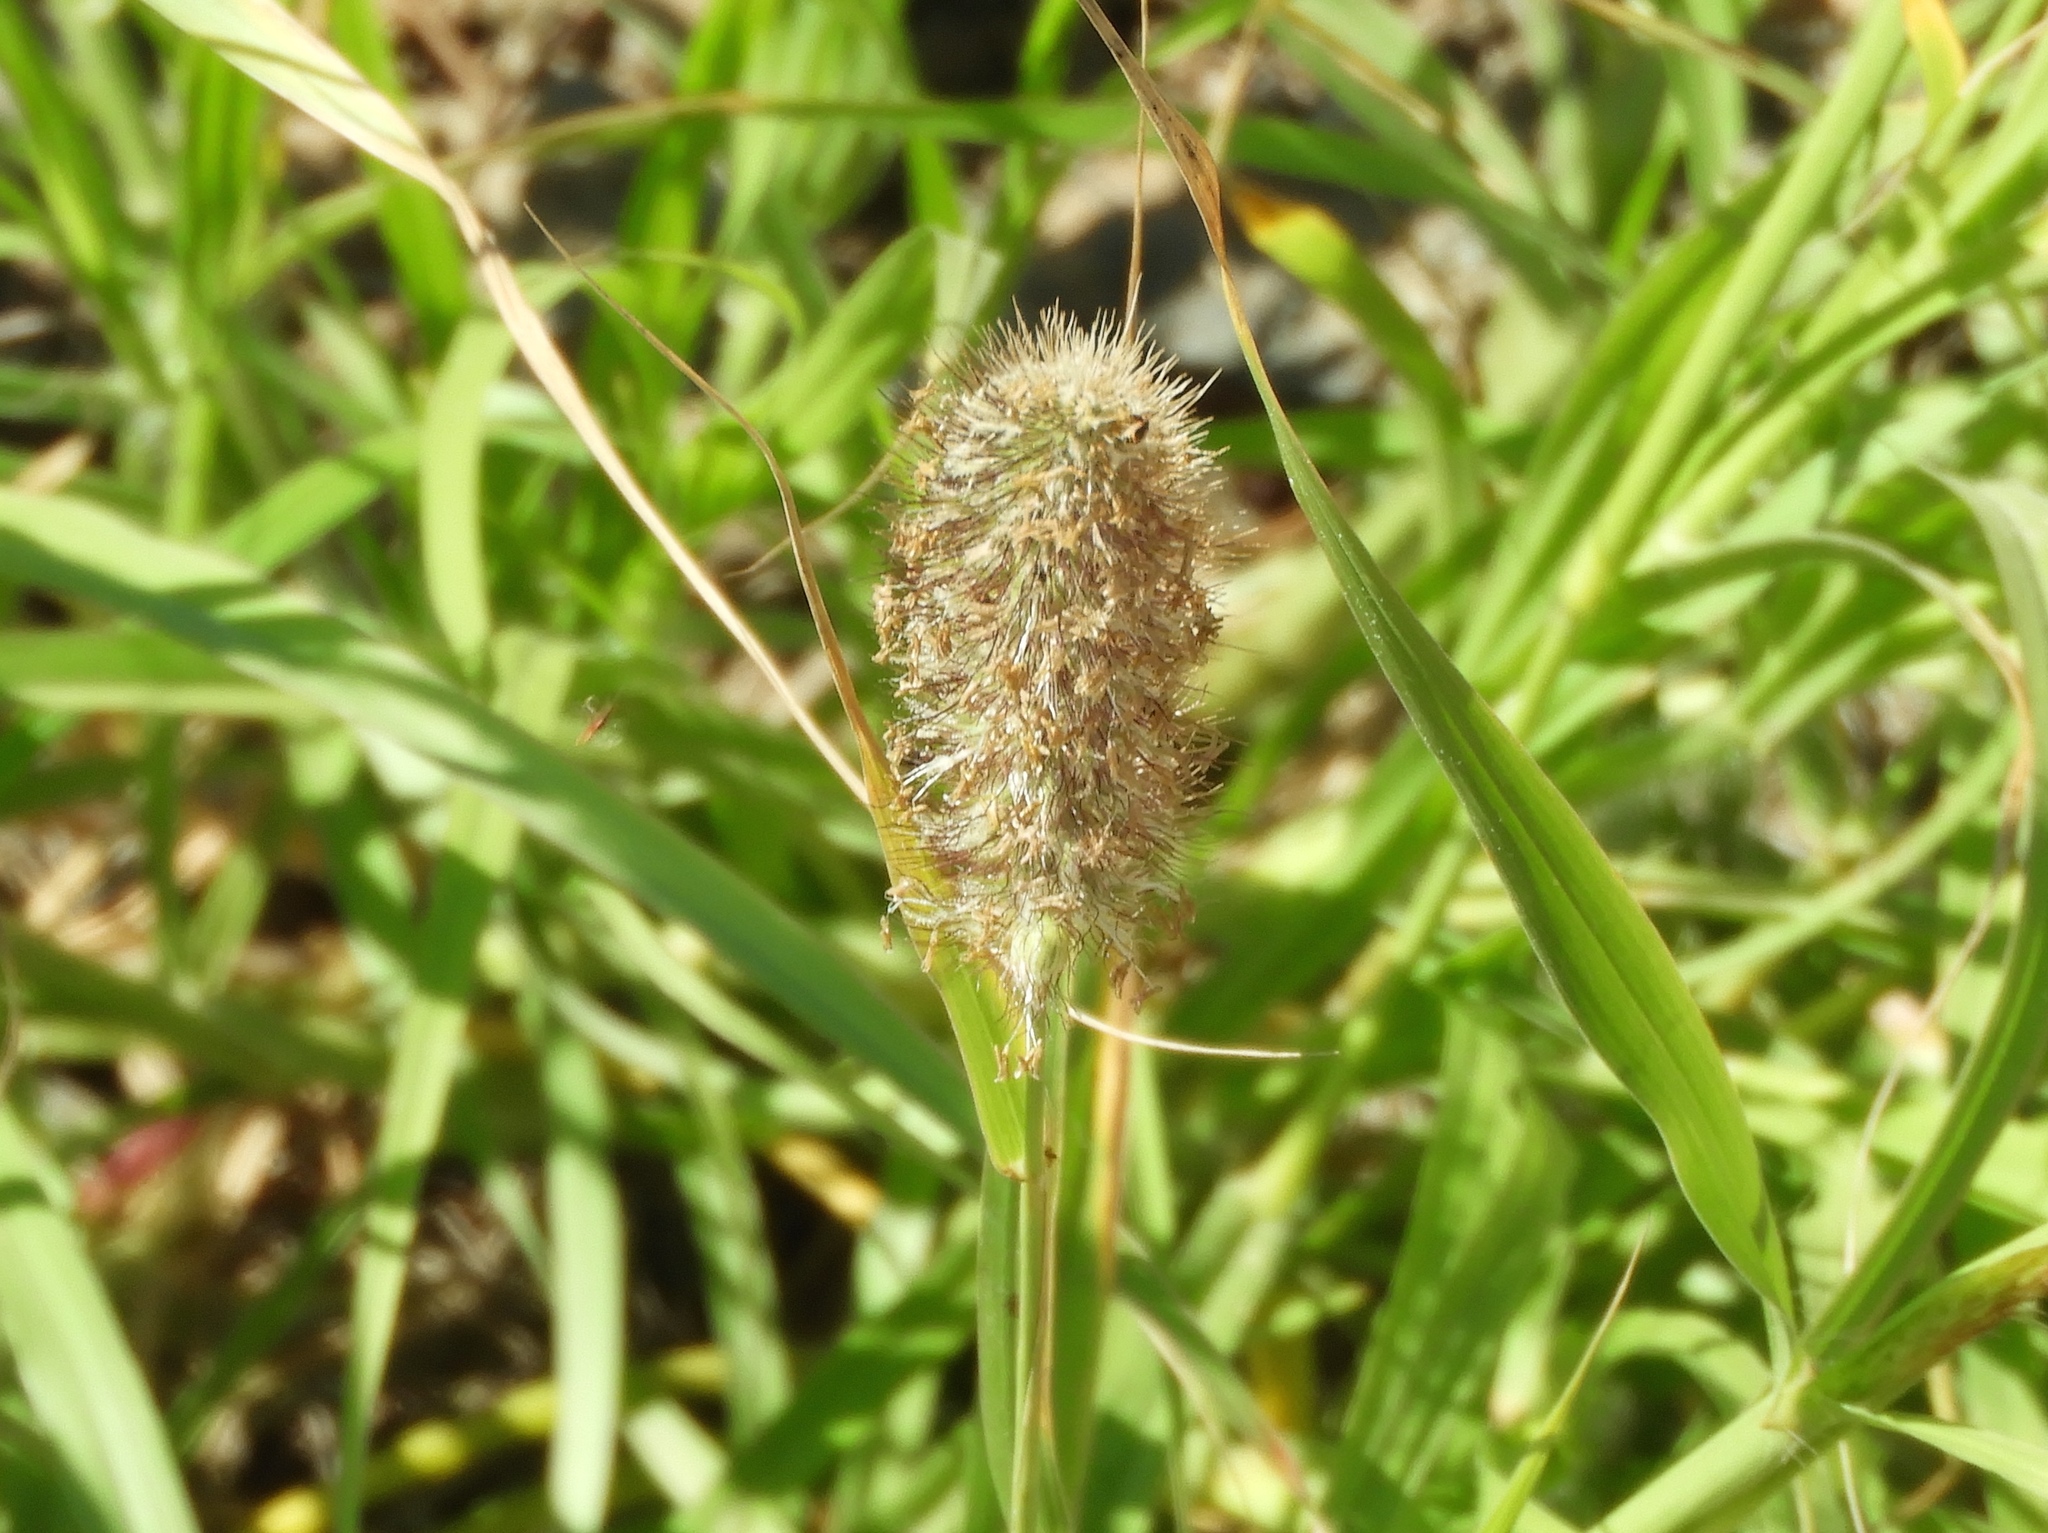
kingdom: Plantae
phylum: Tracheophyta
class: Liliopsida
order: Poales
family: Poaceae
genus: Cenchrus
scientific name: Cenchrus ciliaris
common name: Buffelgrass
